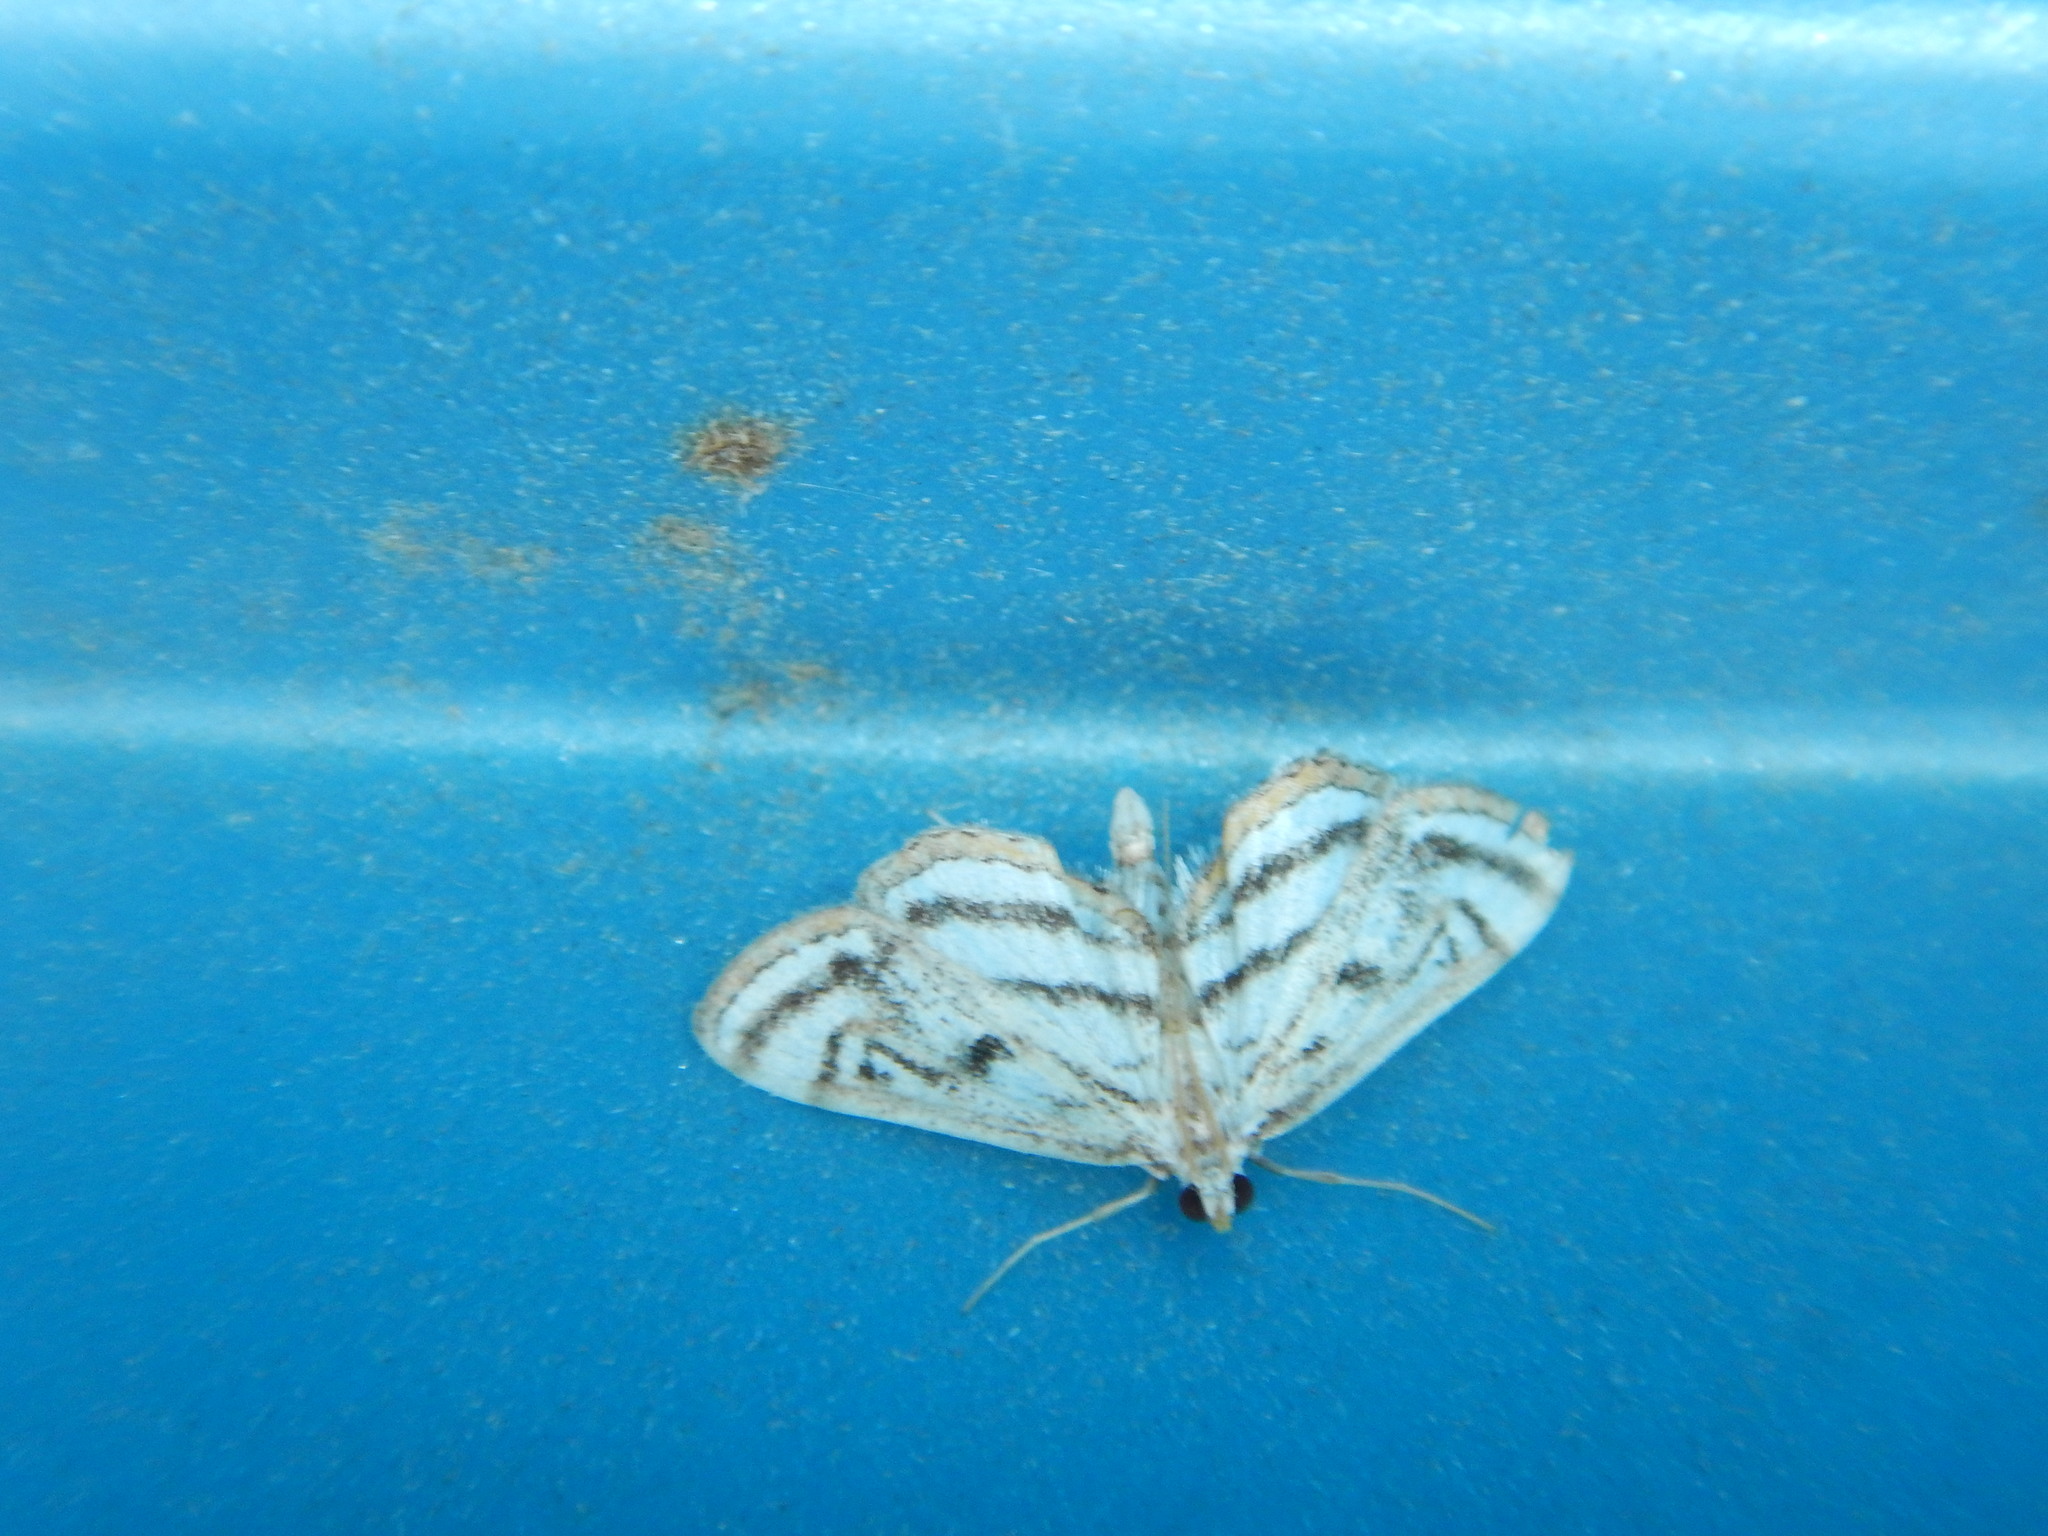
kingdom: Animalia
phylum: Arthropoda
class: Insecta
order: Lepidoptera
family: Crambidae
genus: Parapoynx
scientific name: Parapoynx badiusalis
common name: Chestnut-marked pondweed moth
